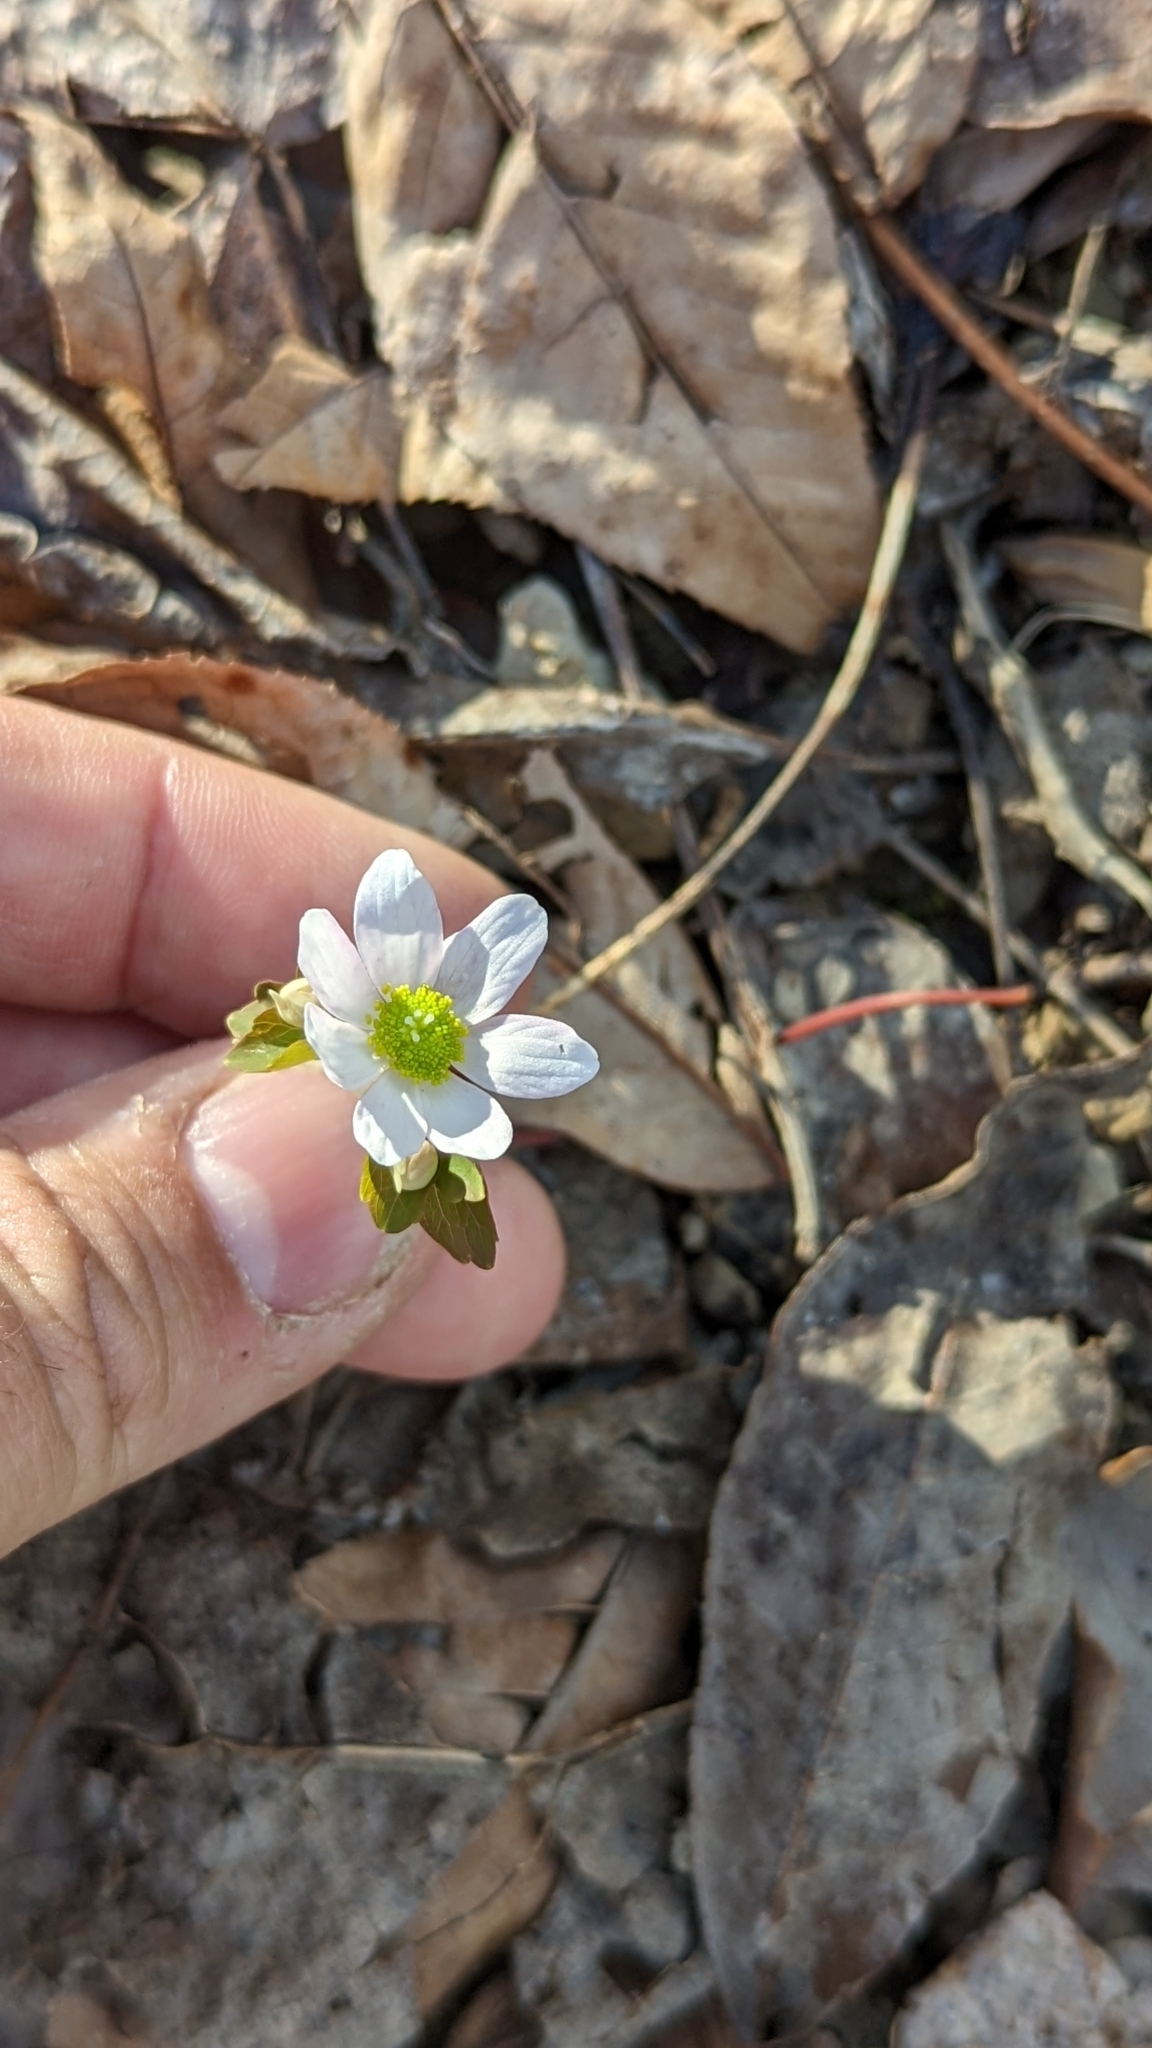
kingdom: Plantae
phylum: Tracheophyta
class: Magnoliopsida
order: Ranunculales
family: Ranunculaceae
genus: Thalictrum
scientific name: Thalictrum thalictroides
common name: Rue-anemone
